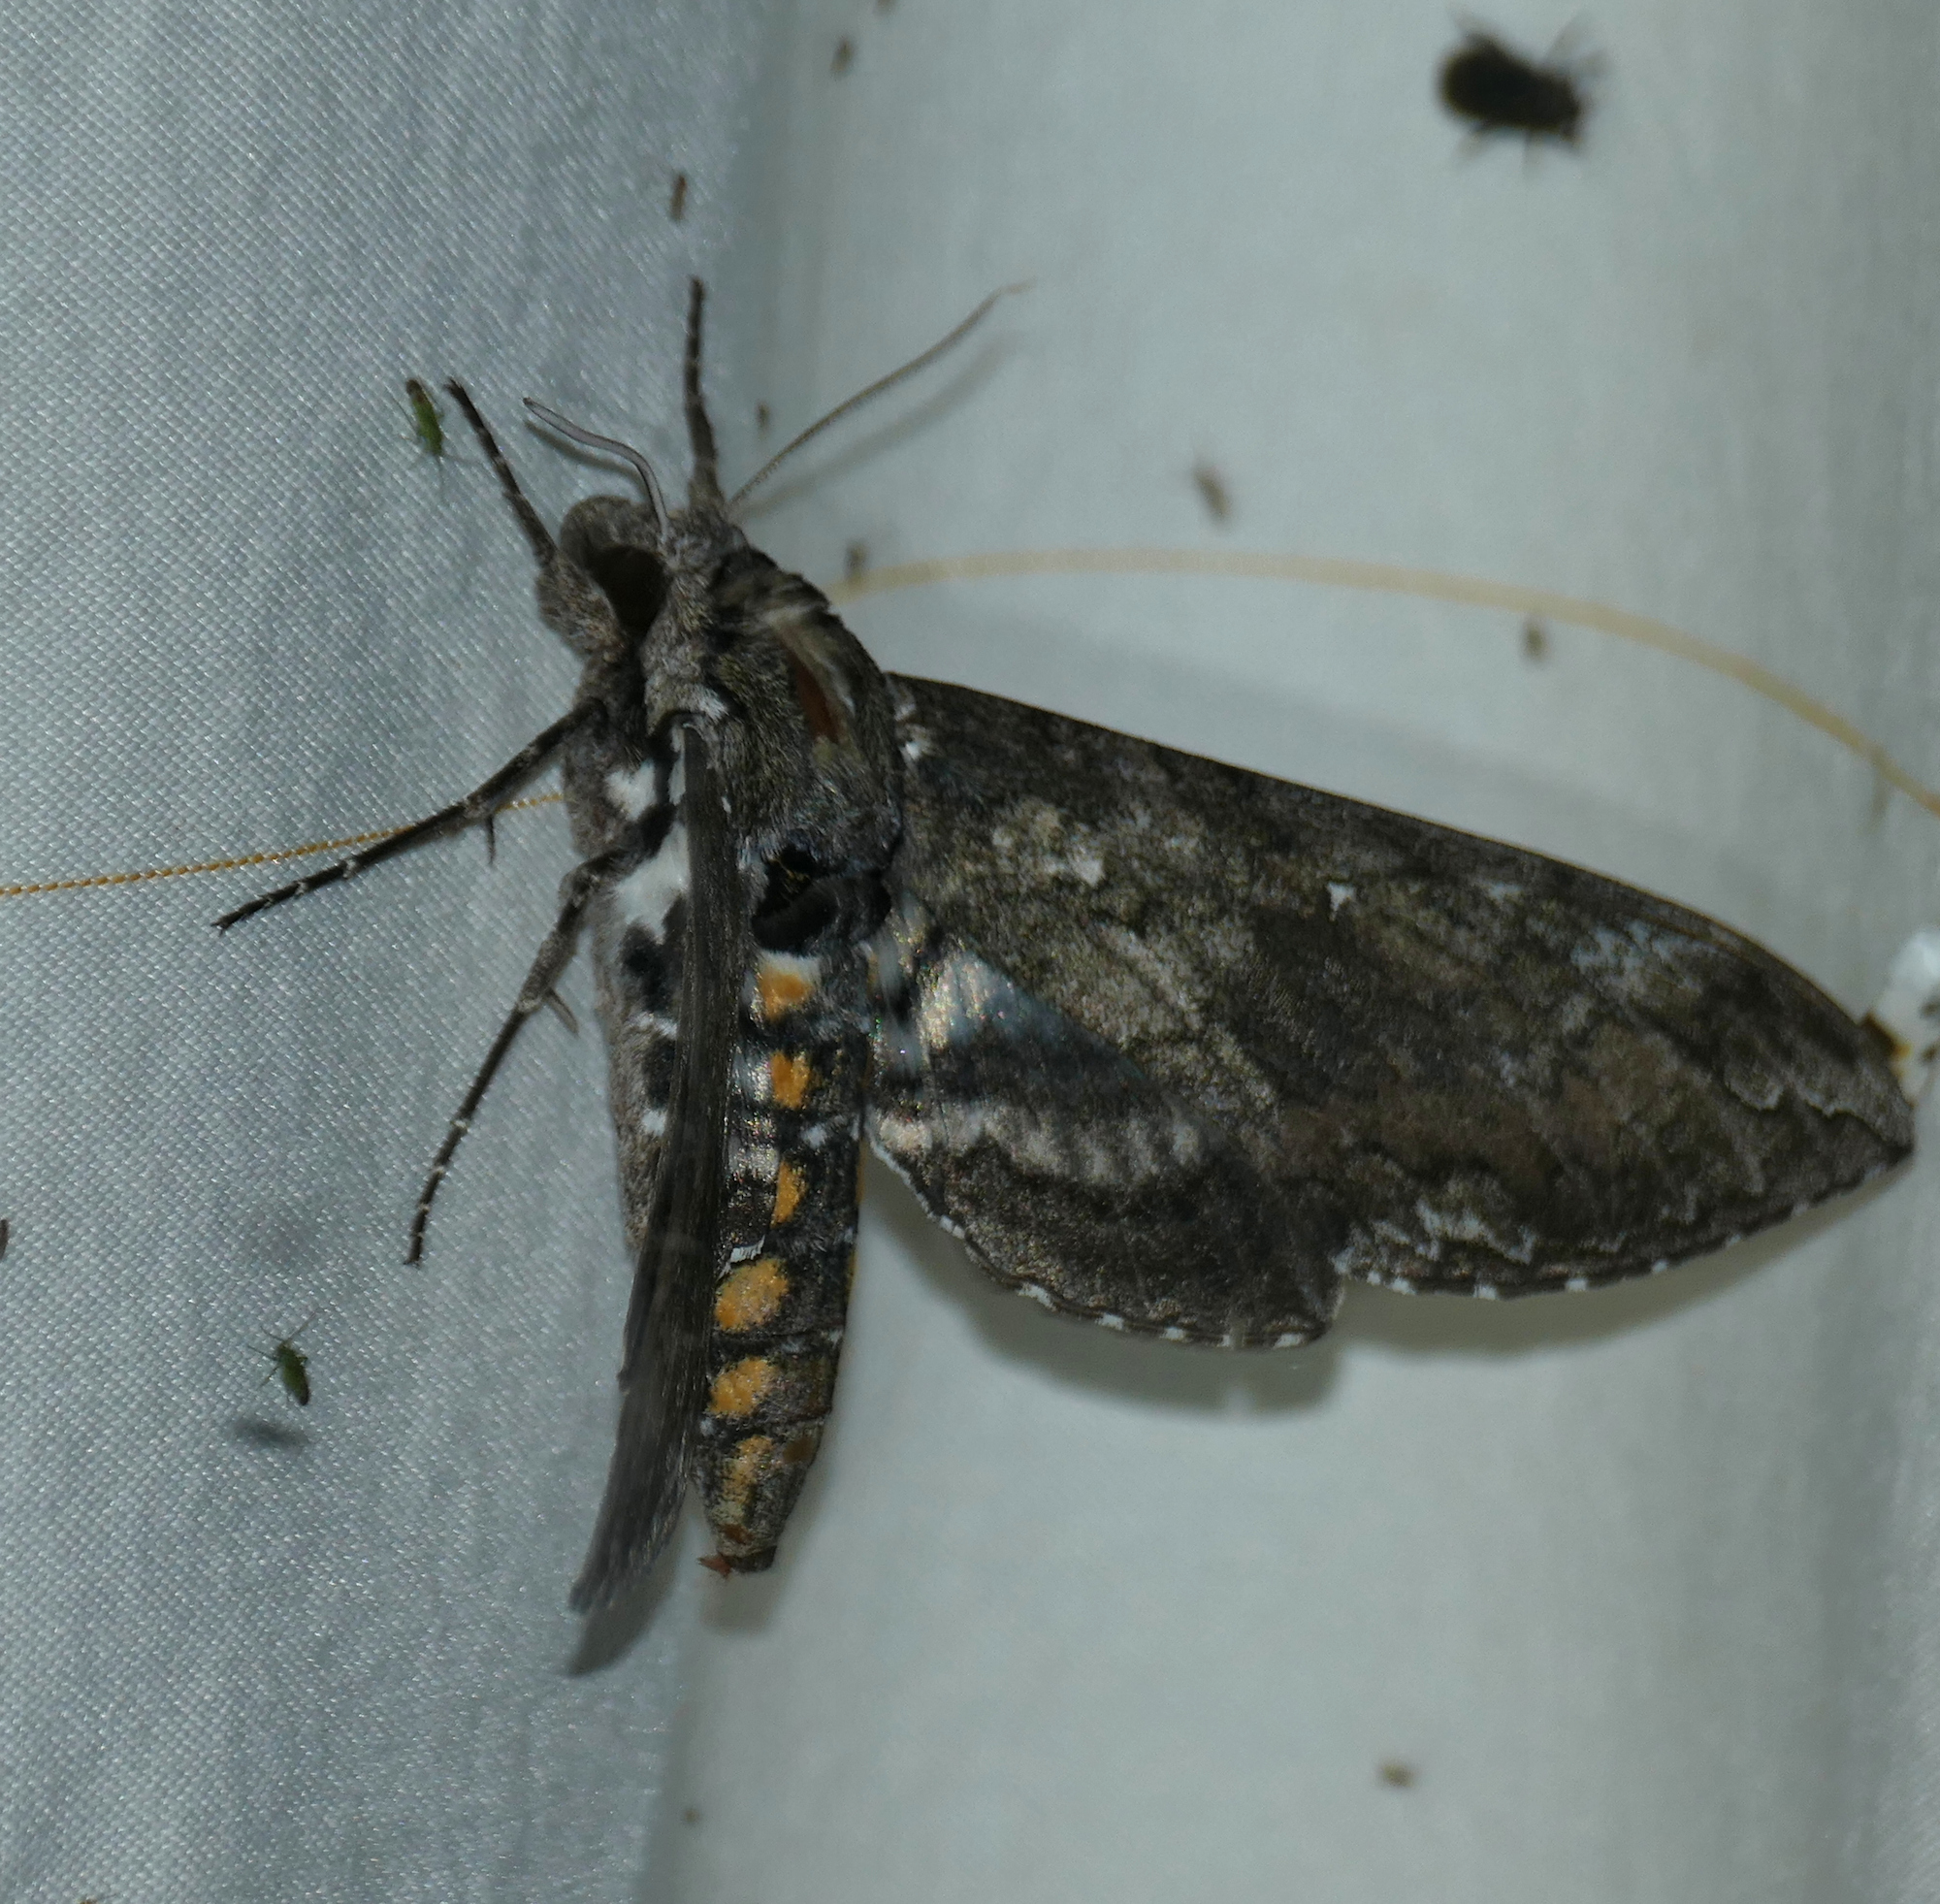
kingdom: Animalia
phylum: Arthropoda
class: Insecta
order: Lepidoptera
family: Sphingidae
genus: Manduca
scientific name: Manduca sexta
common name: Carolina sphinx
